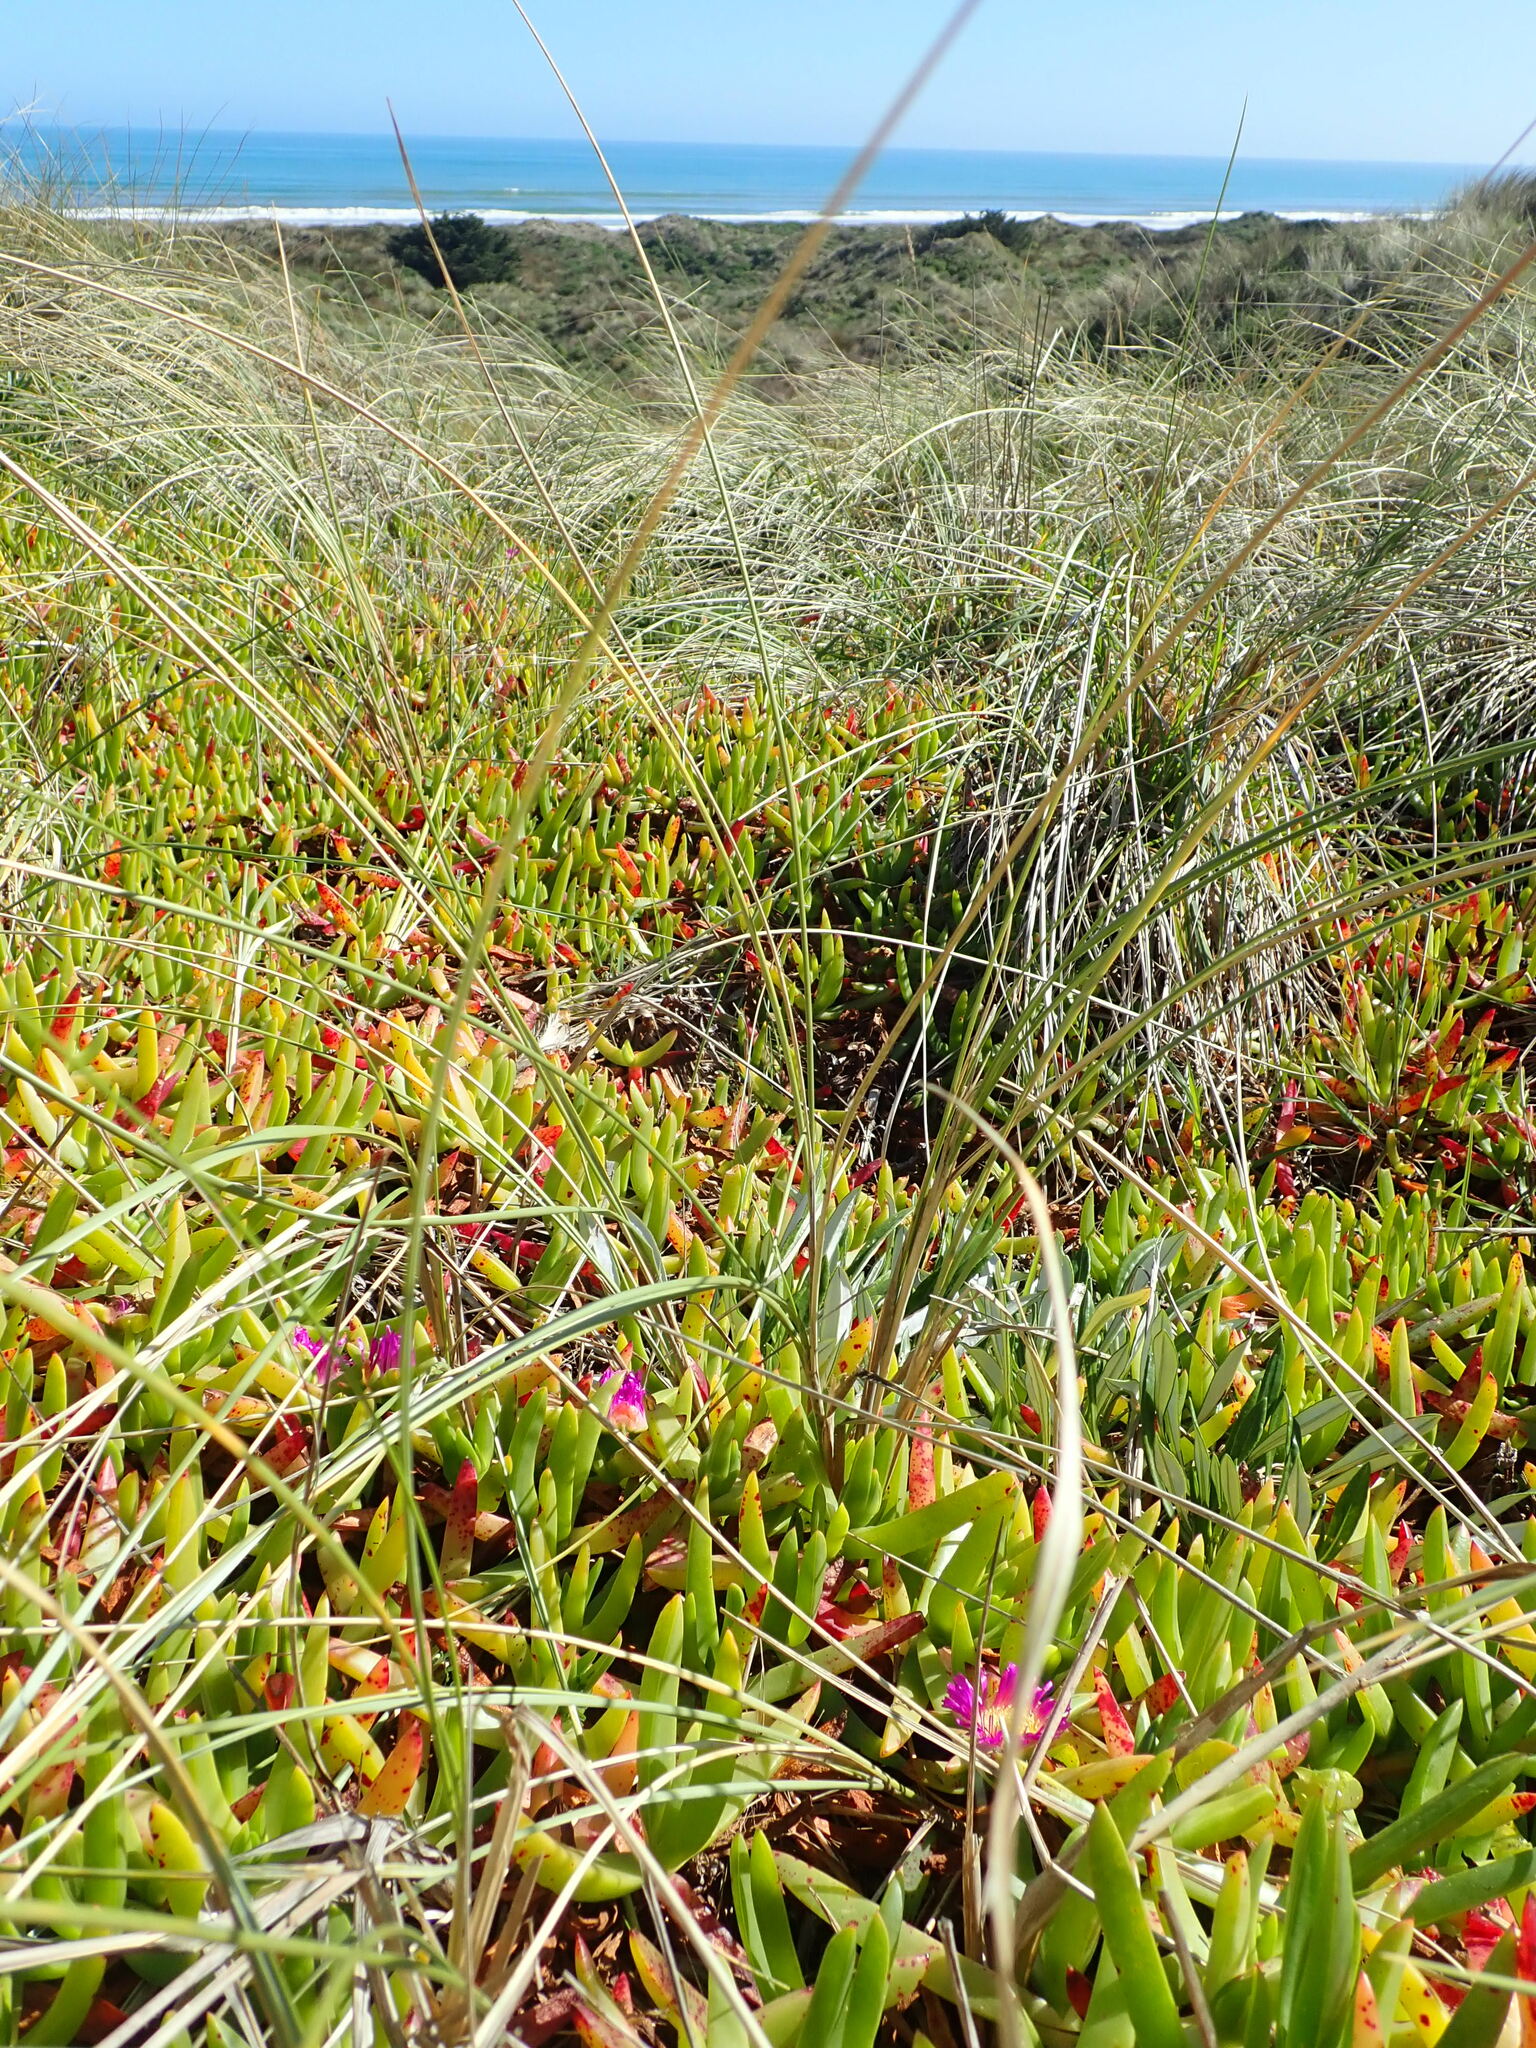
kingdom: Plantae
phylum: Tracheophyta
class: Magnoliopsida
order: Caryophyllales
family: Aizoaceae
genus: Carpobrotus
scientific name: Carpobrotus chilensis
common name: Sea fig
